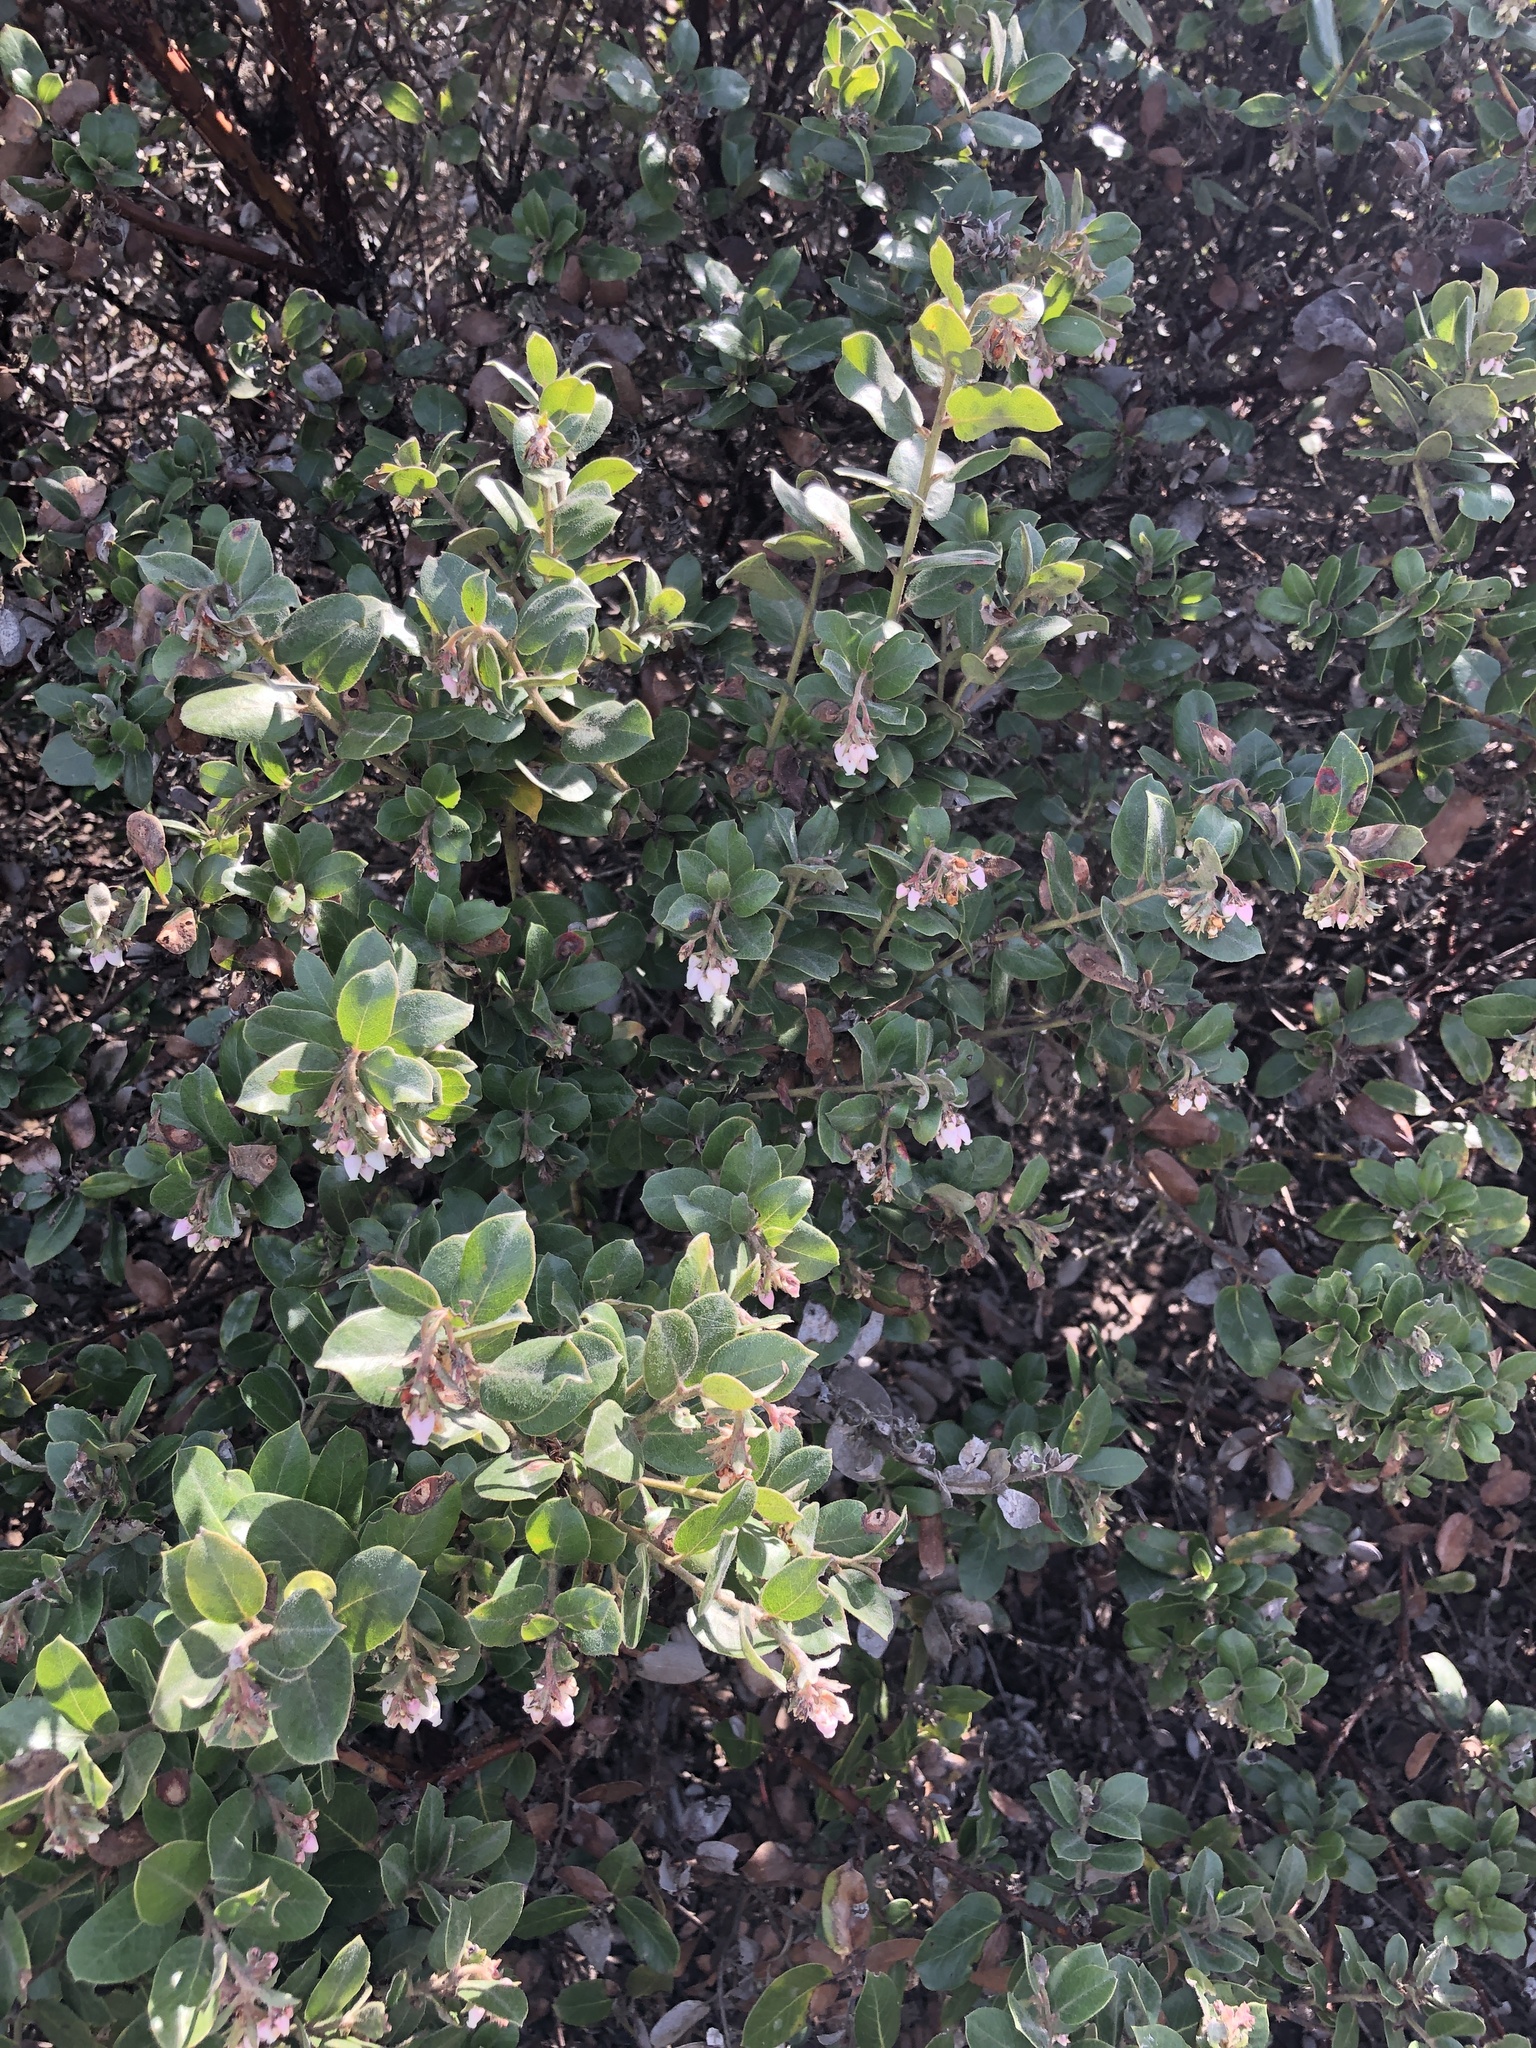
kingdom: Plantae
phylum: Tracheophyta
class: Magnoliopsida
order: Ericales
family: Ericaceae
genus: Arctostaphylos
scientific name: Arctostaphylos tomentosa
